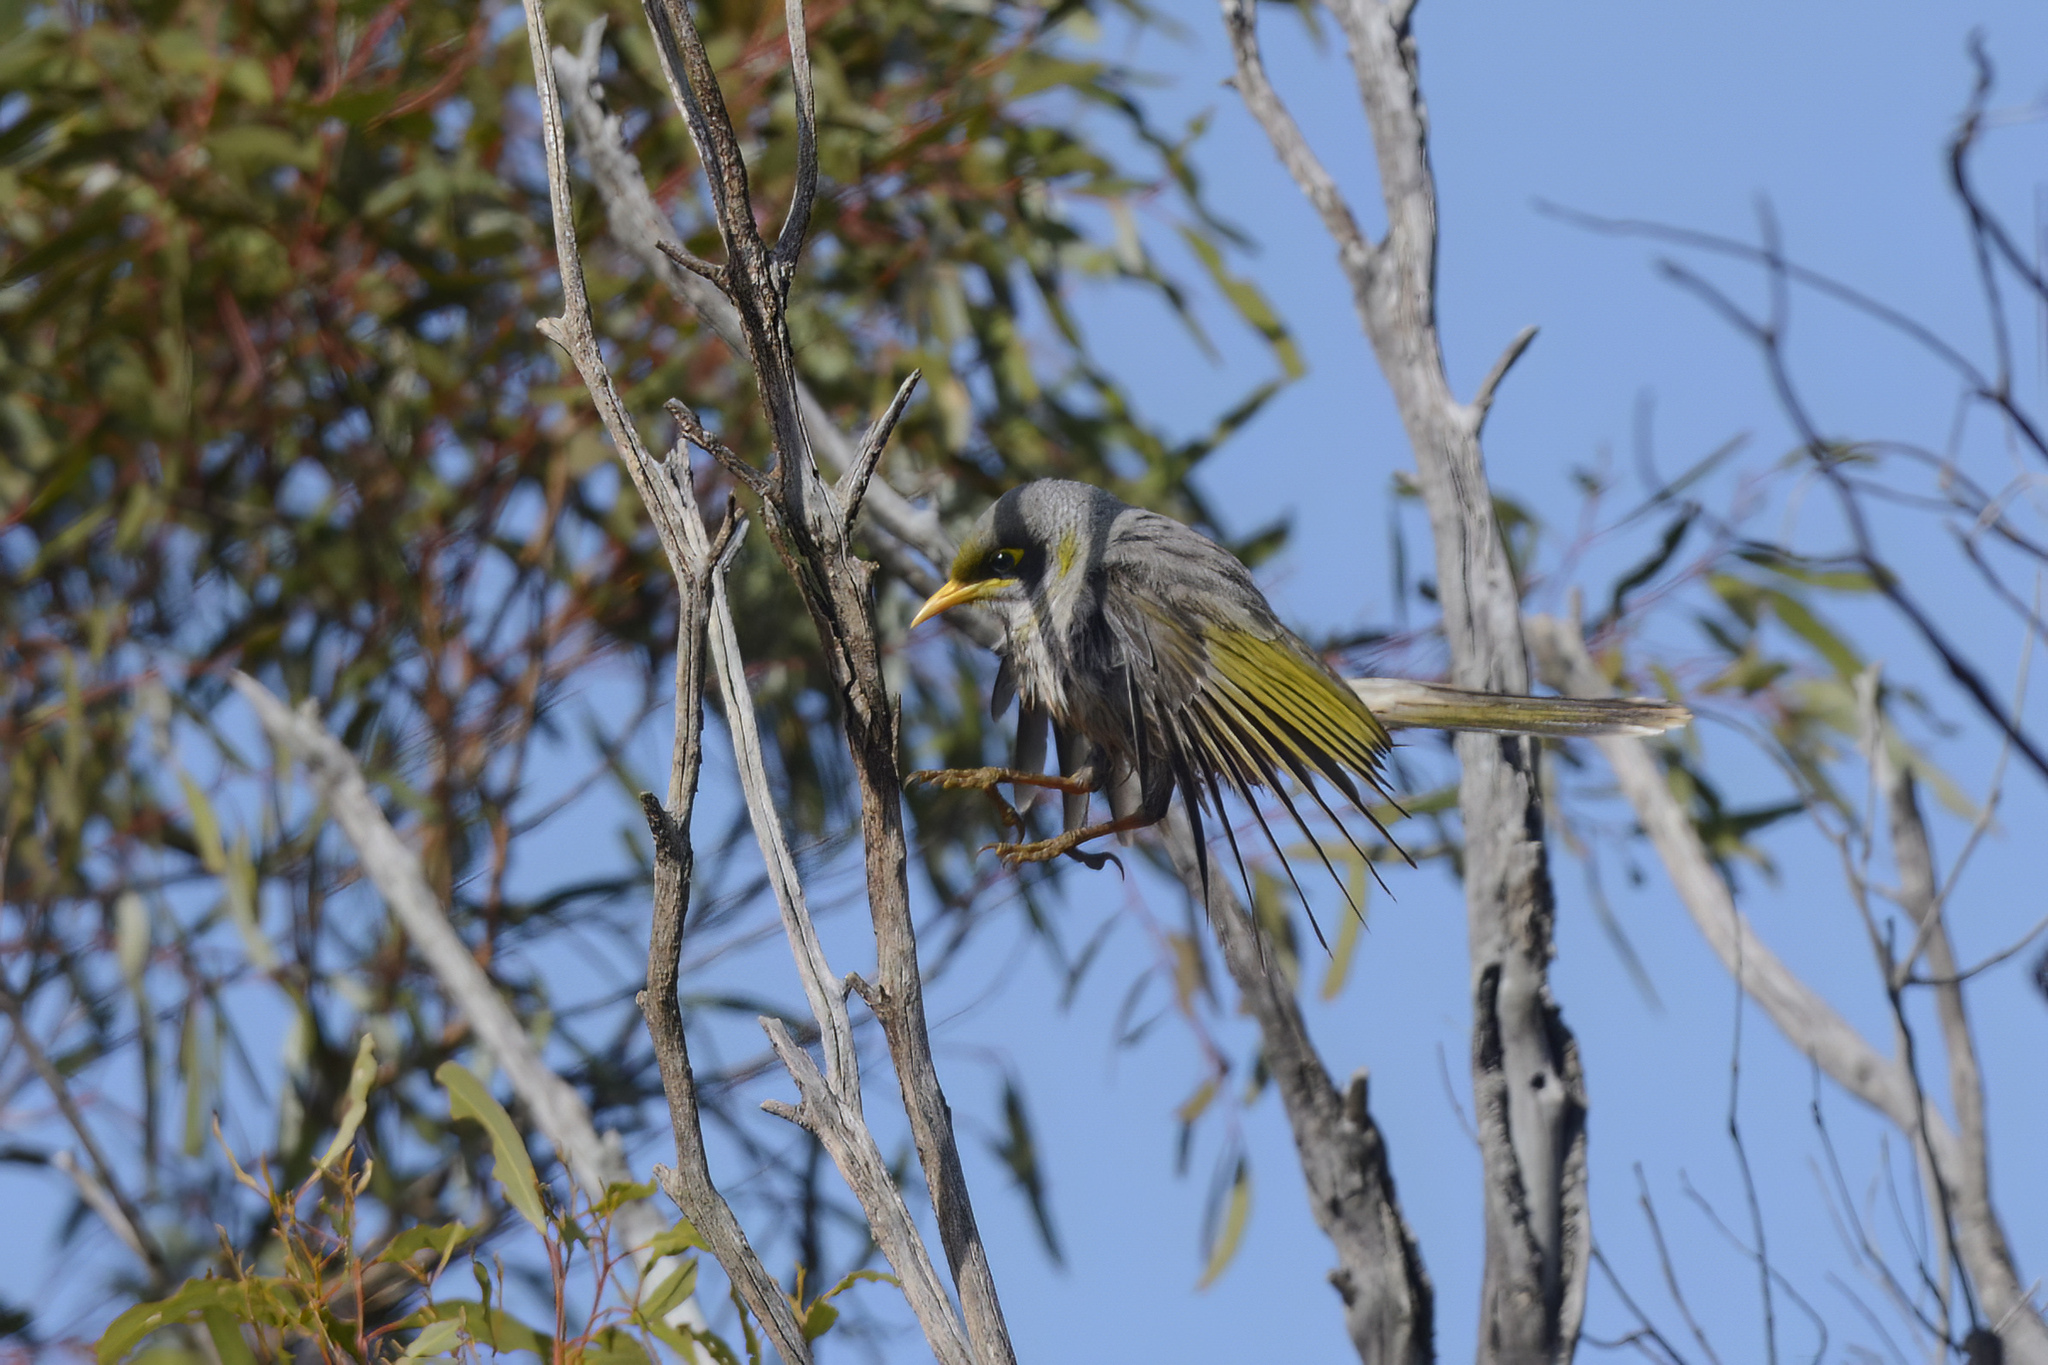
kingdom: Animalia
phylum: Chordata
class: Aves
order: Passeriformes
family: Meliphagidae
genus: Manorina
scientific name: Manorina melanotis
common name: Black-eared miner
